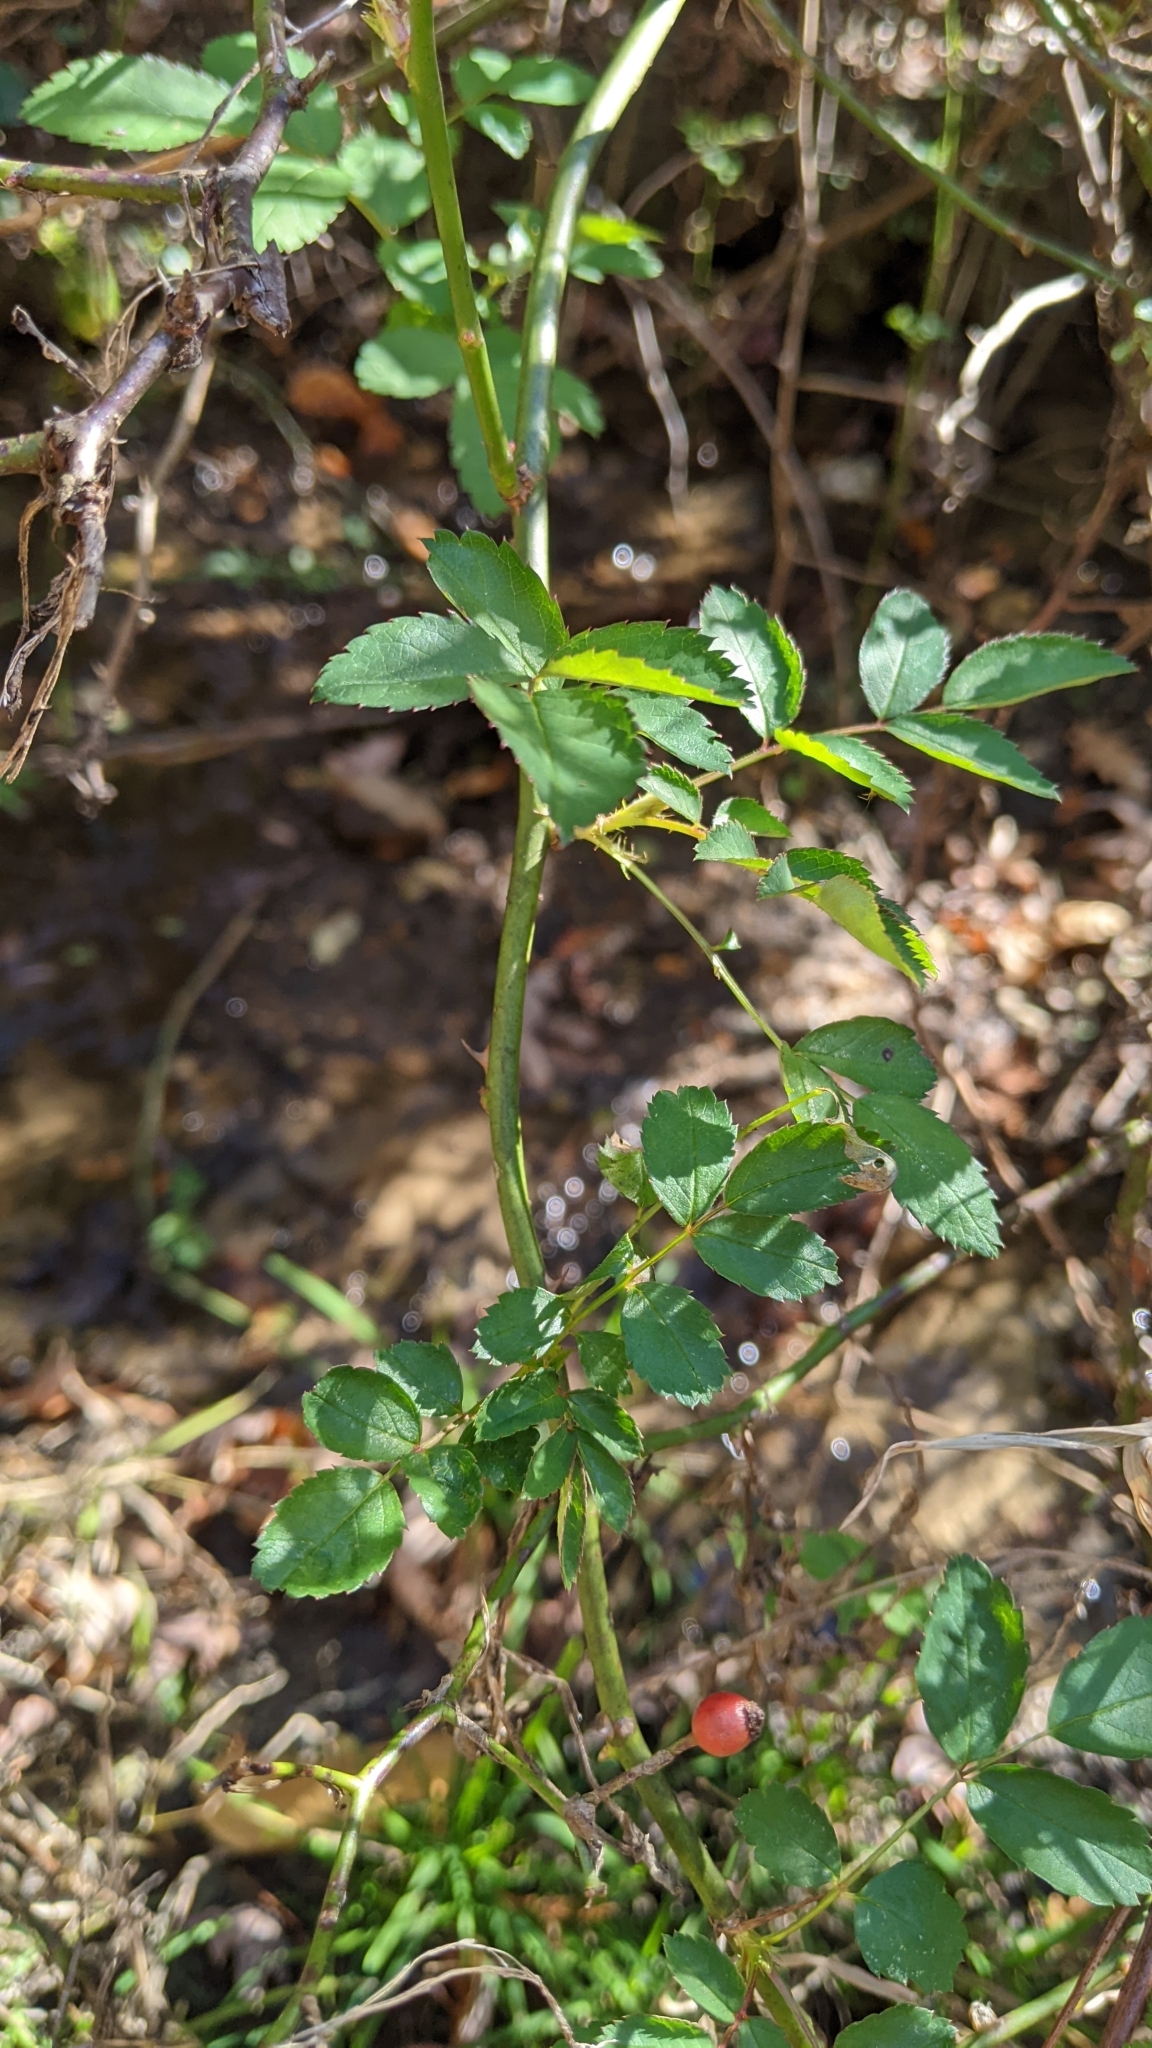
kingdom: Plantae
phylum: Tracheophyta
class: Magnoliopsida
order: Rosales
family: Rosaceae
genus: Rosa
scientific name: Rosa multiflora
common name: Multiflora rose
